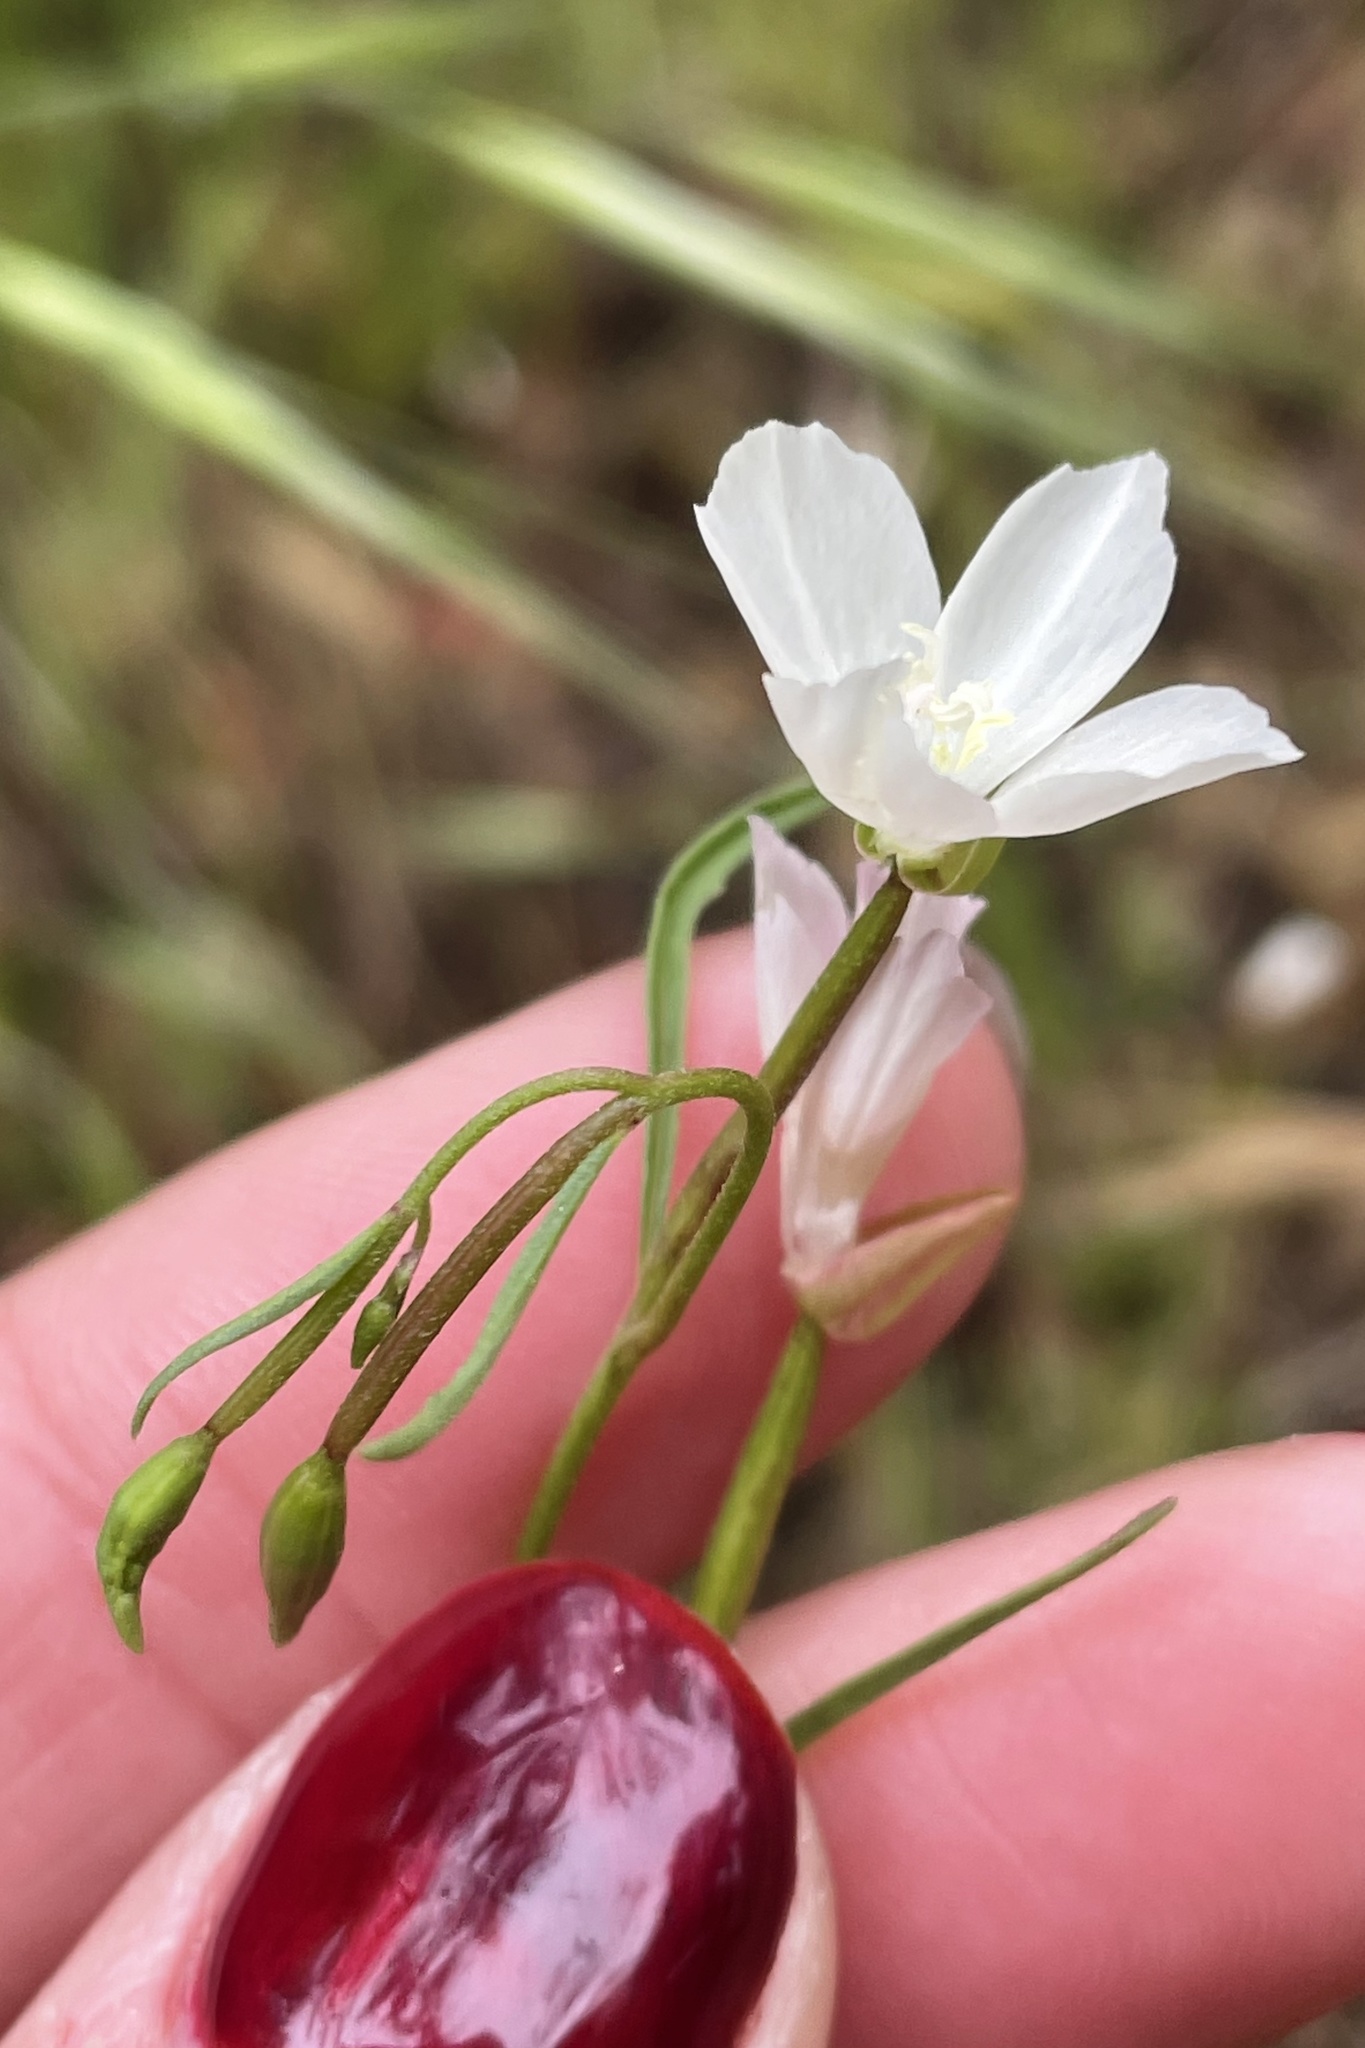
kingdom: Plantae
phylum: Tracheophyta
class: Magnoliopsida
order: Myrtales
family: Onagraceae
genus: Clarkia
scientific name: Clarkia epilobioides
